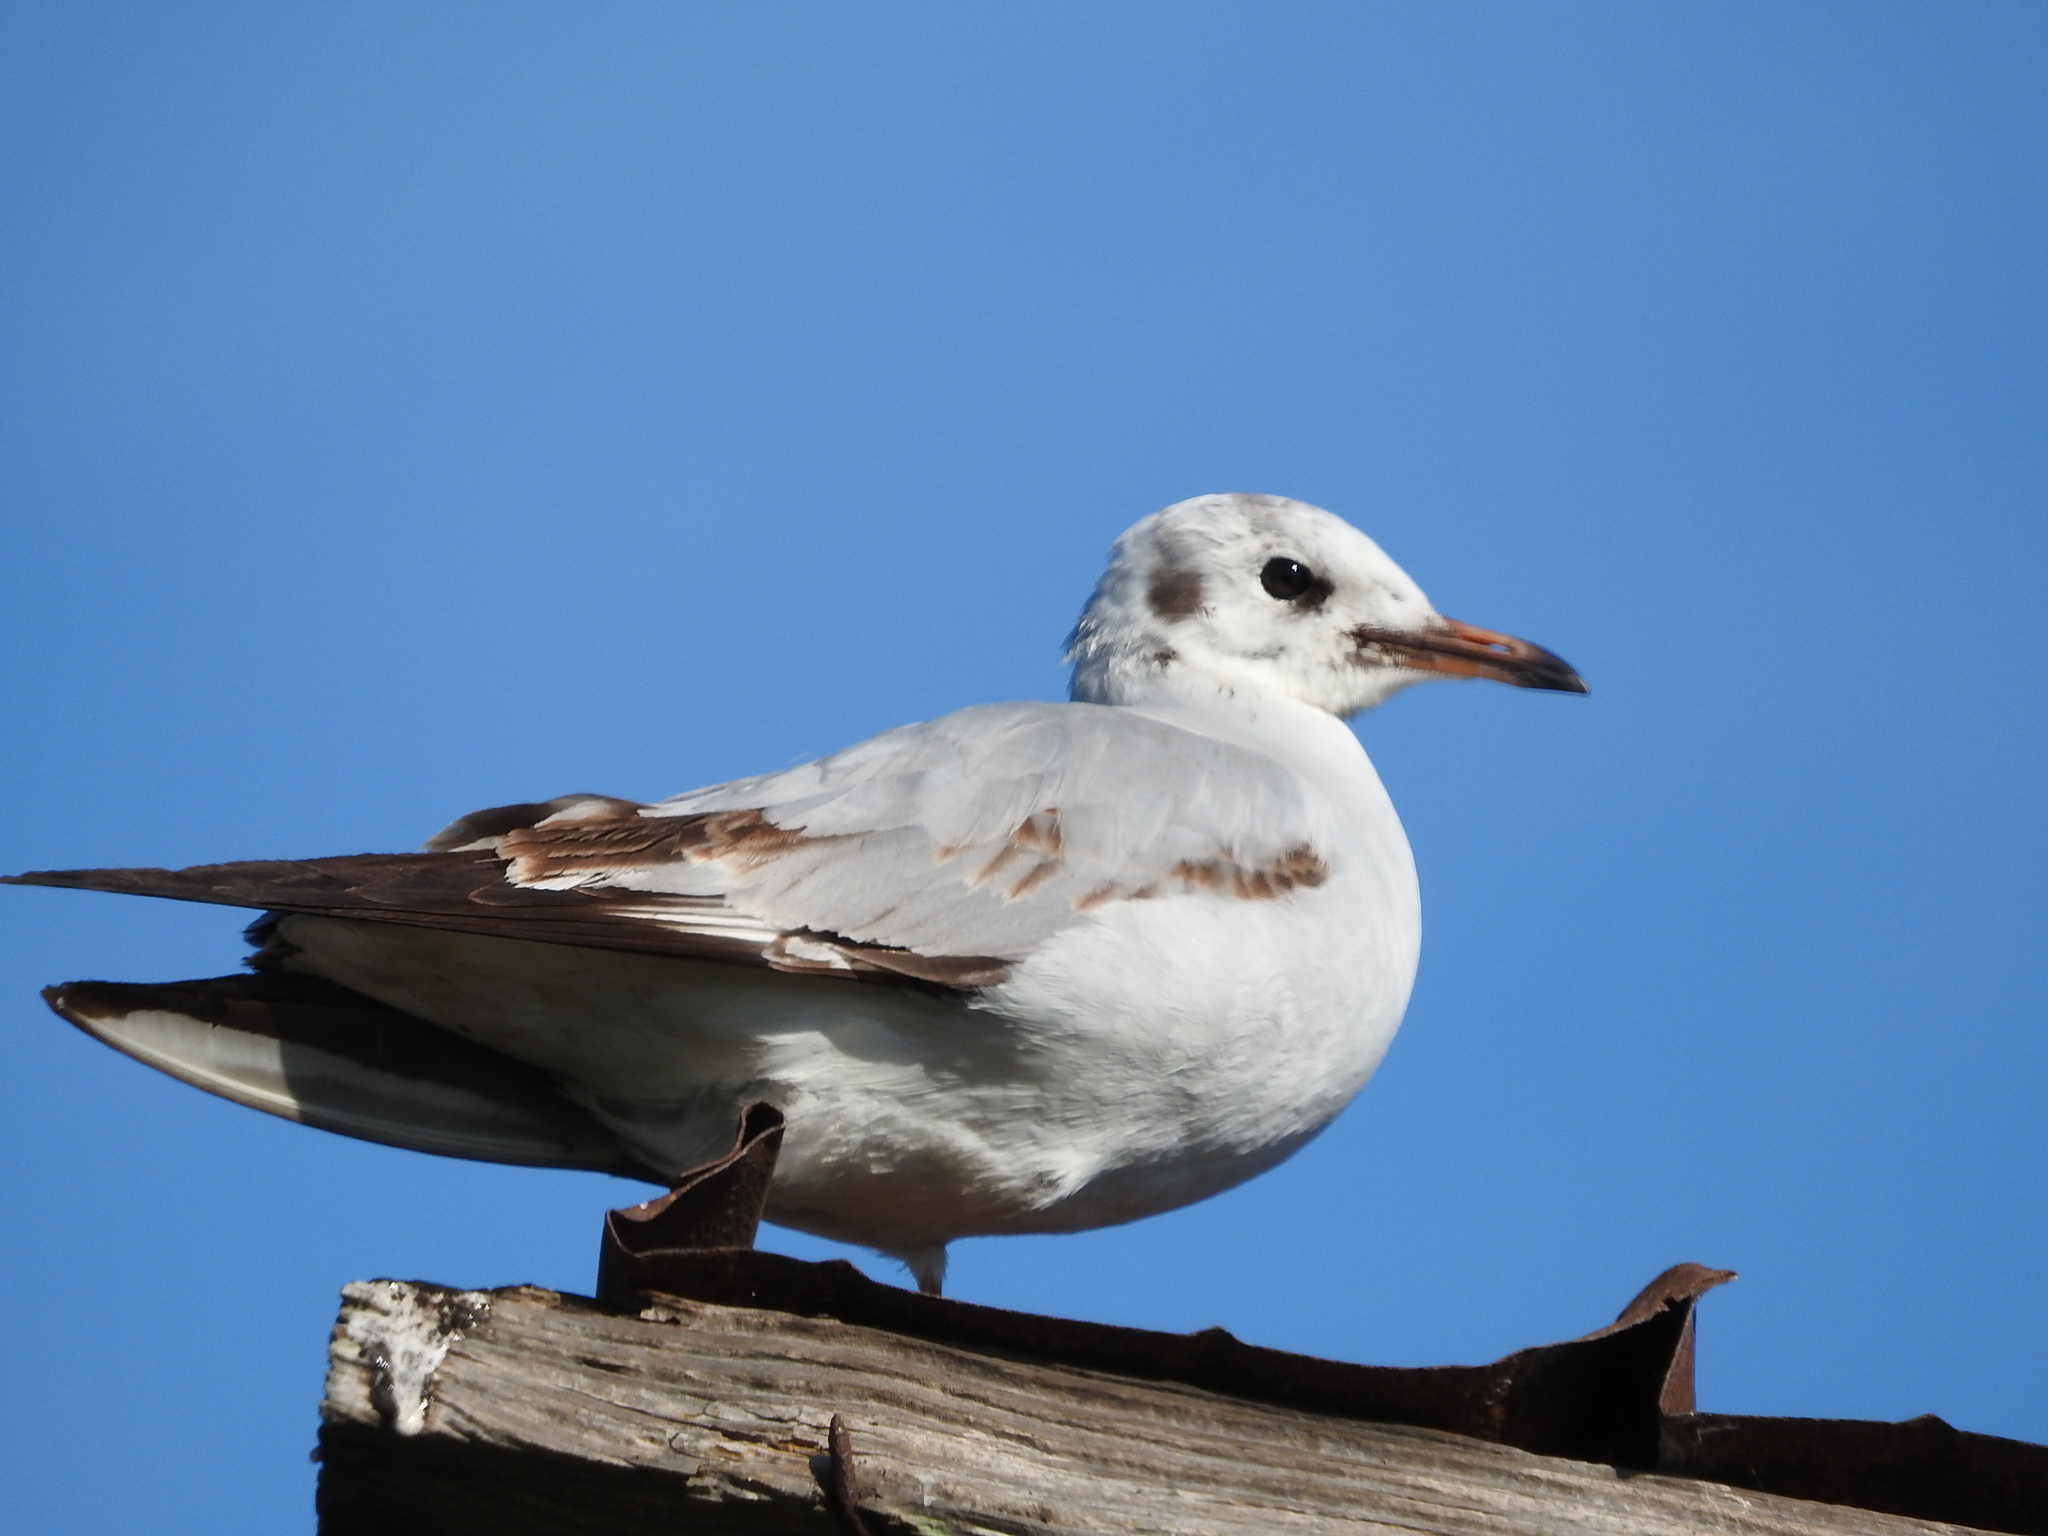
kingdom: Animalia
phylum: Chordata
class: Aves
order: Charadriiformes
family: Laridae
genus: Chroicocephalus
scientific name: Chroicocephalus ridibundus
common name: Black-headed gull
